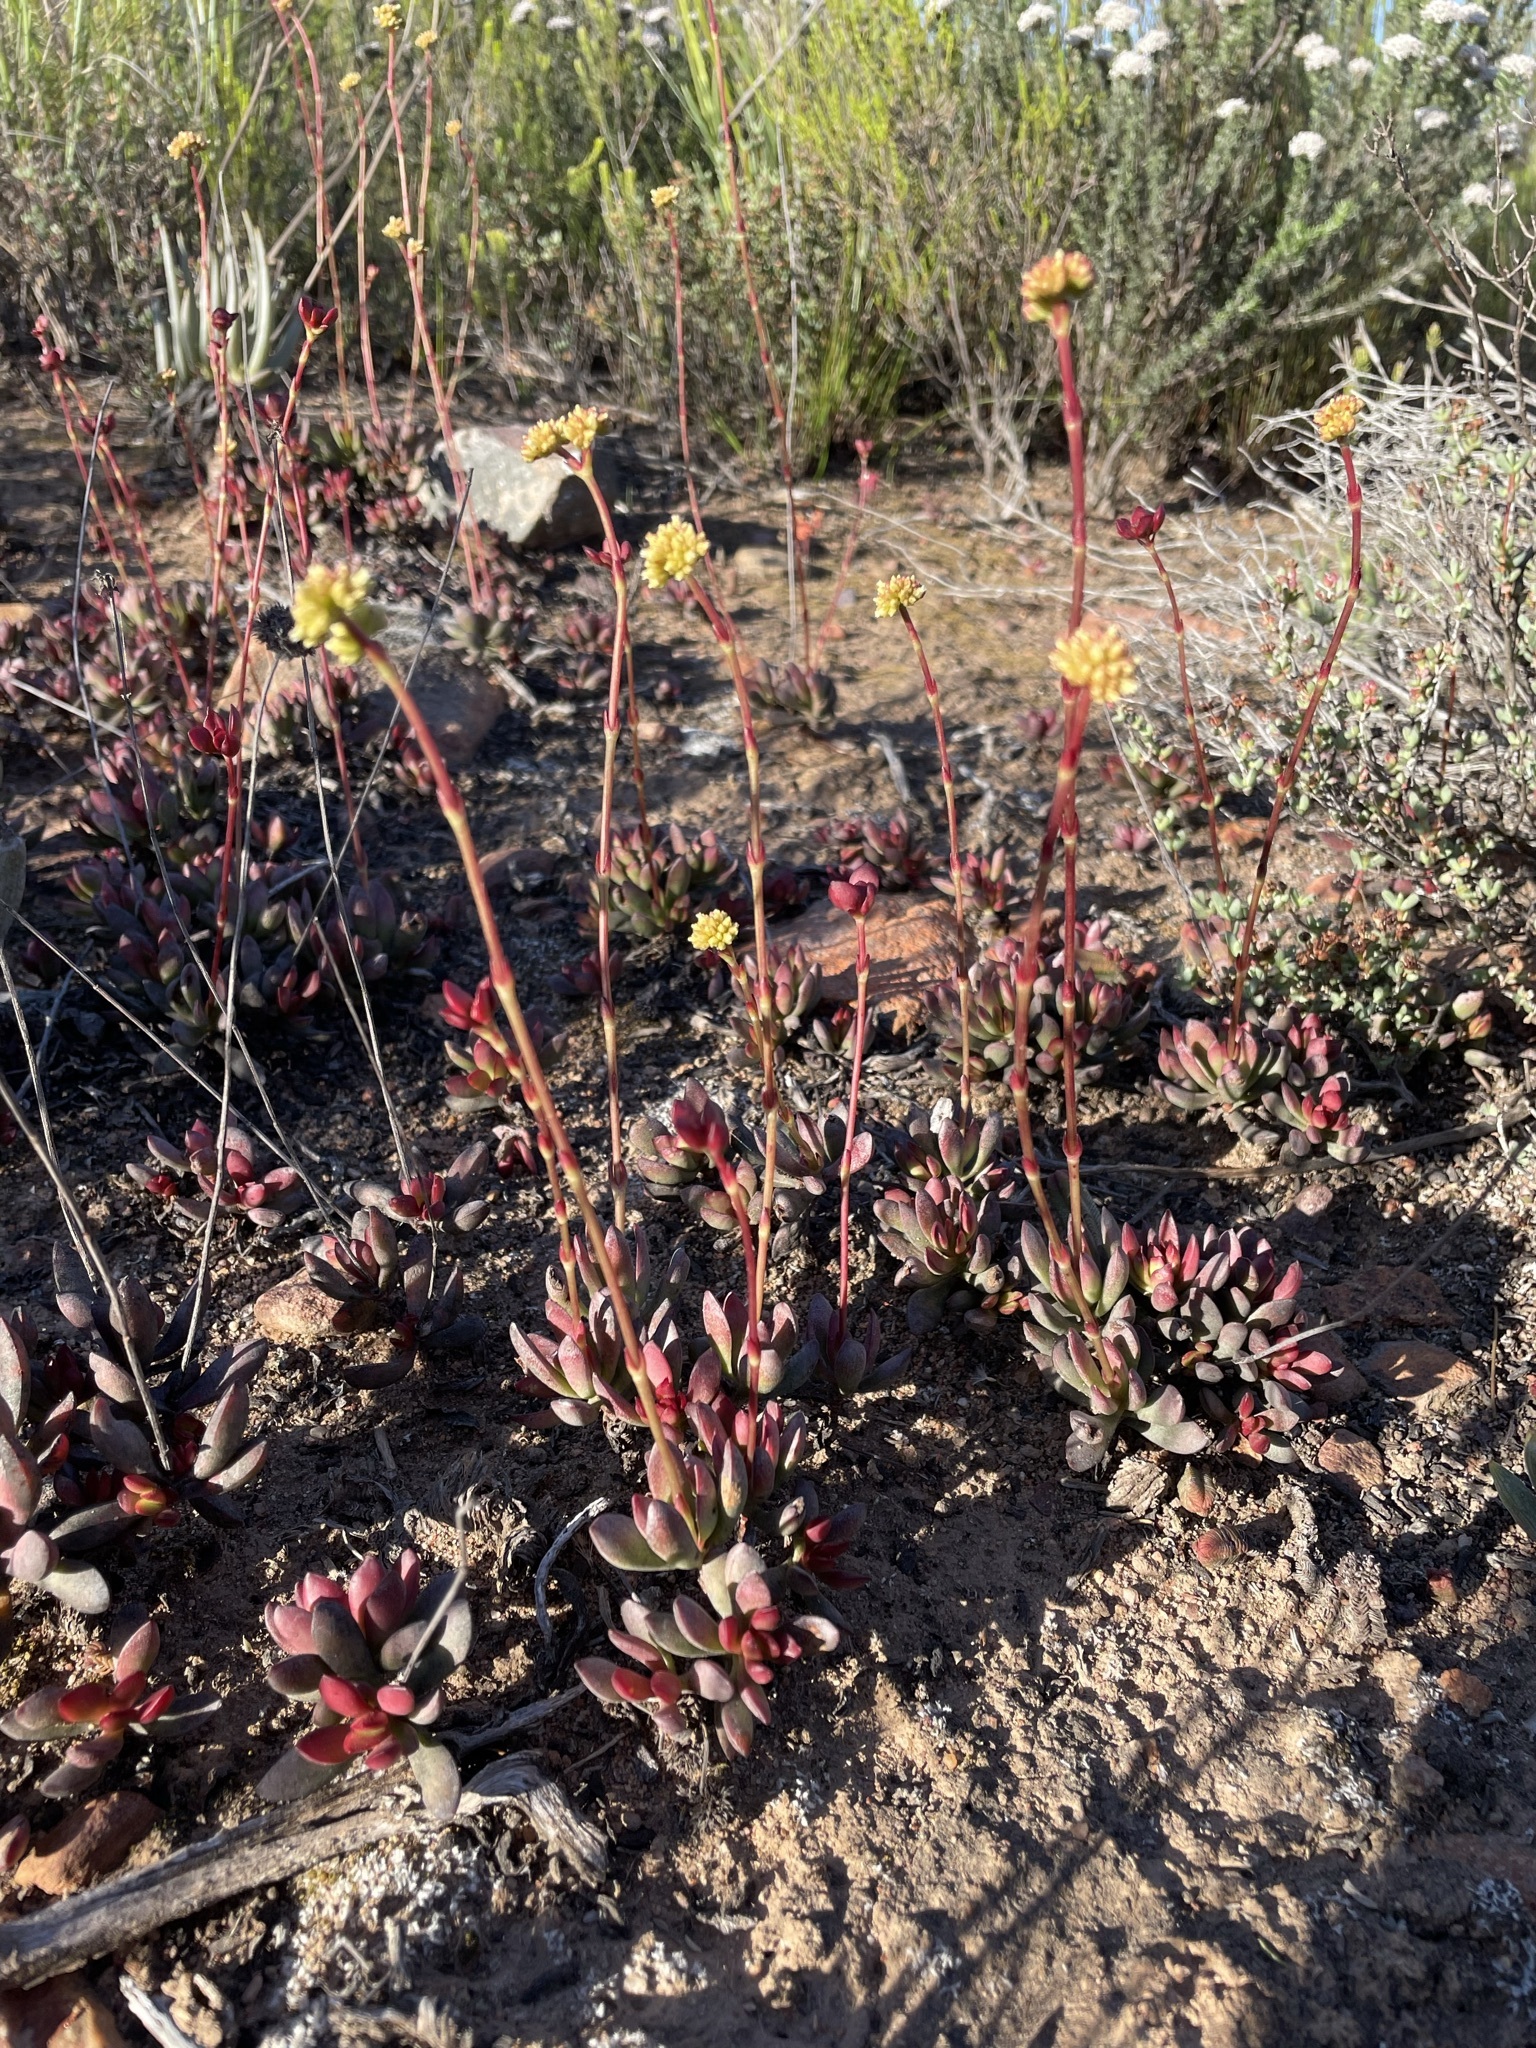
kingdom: Plantae
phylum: Tracheophyta
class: Magnoliopsida
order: Saxifragales
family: Crassulaceae
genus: Crassula
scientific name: Crassula atropurpurea
